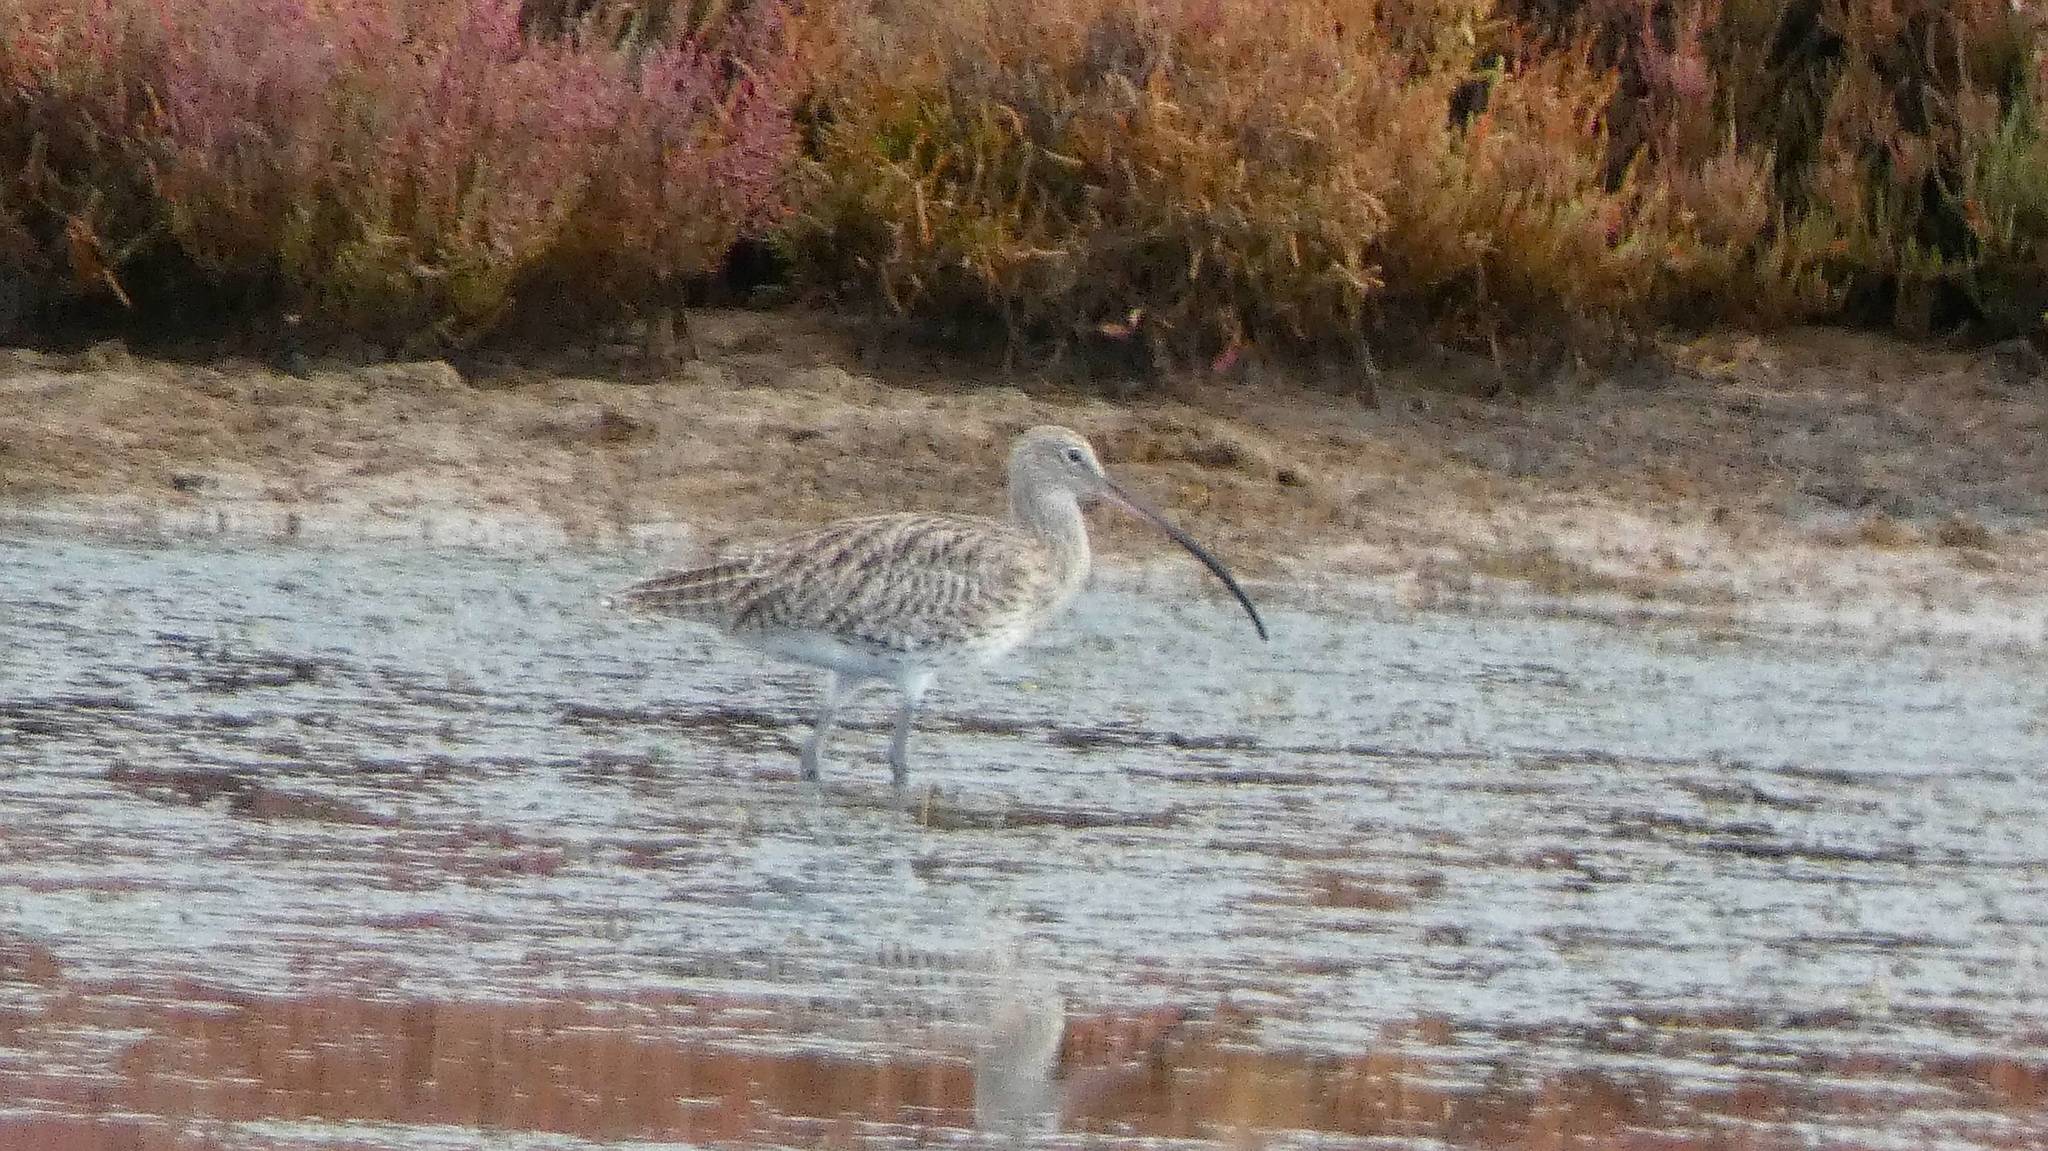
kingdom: Animalia
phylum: Chordata
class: Aves
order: Charadriiformes
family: Scolopacidae
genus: Numenius
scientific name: Numenius arquata
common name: Eurasian curlew
